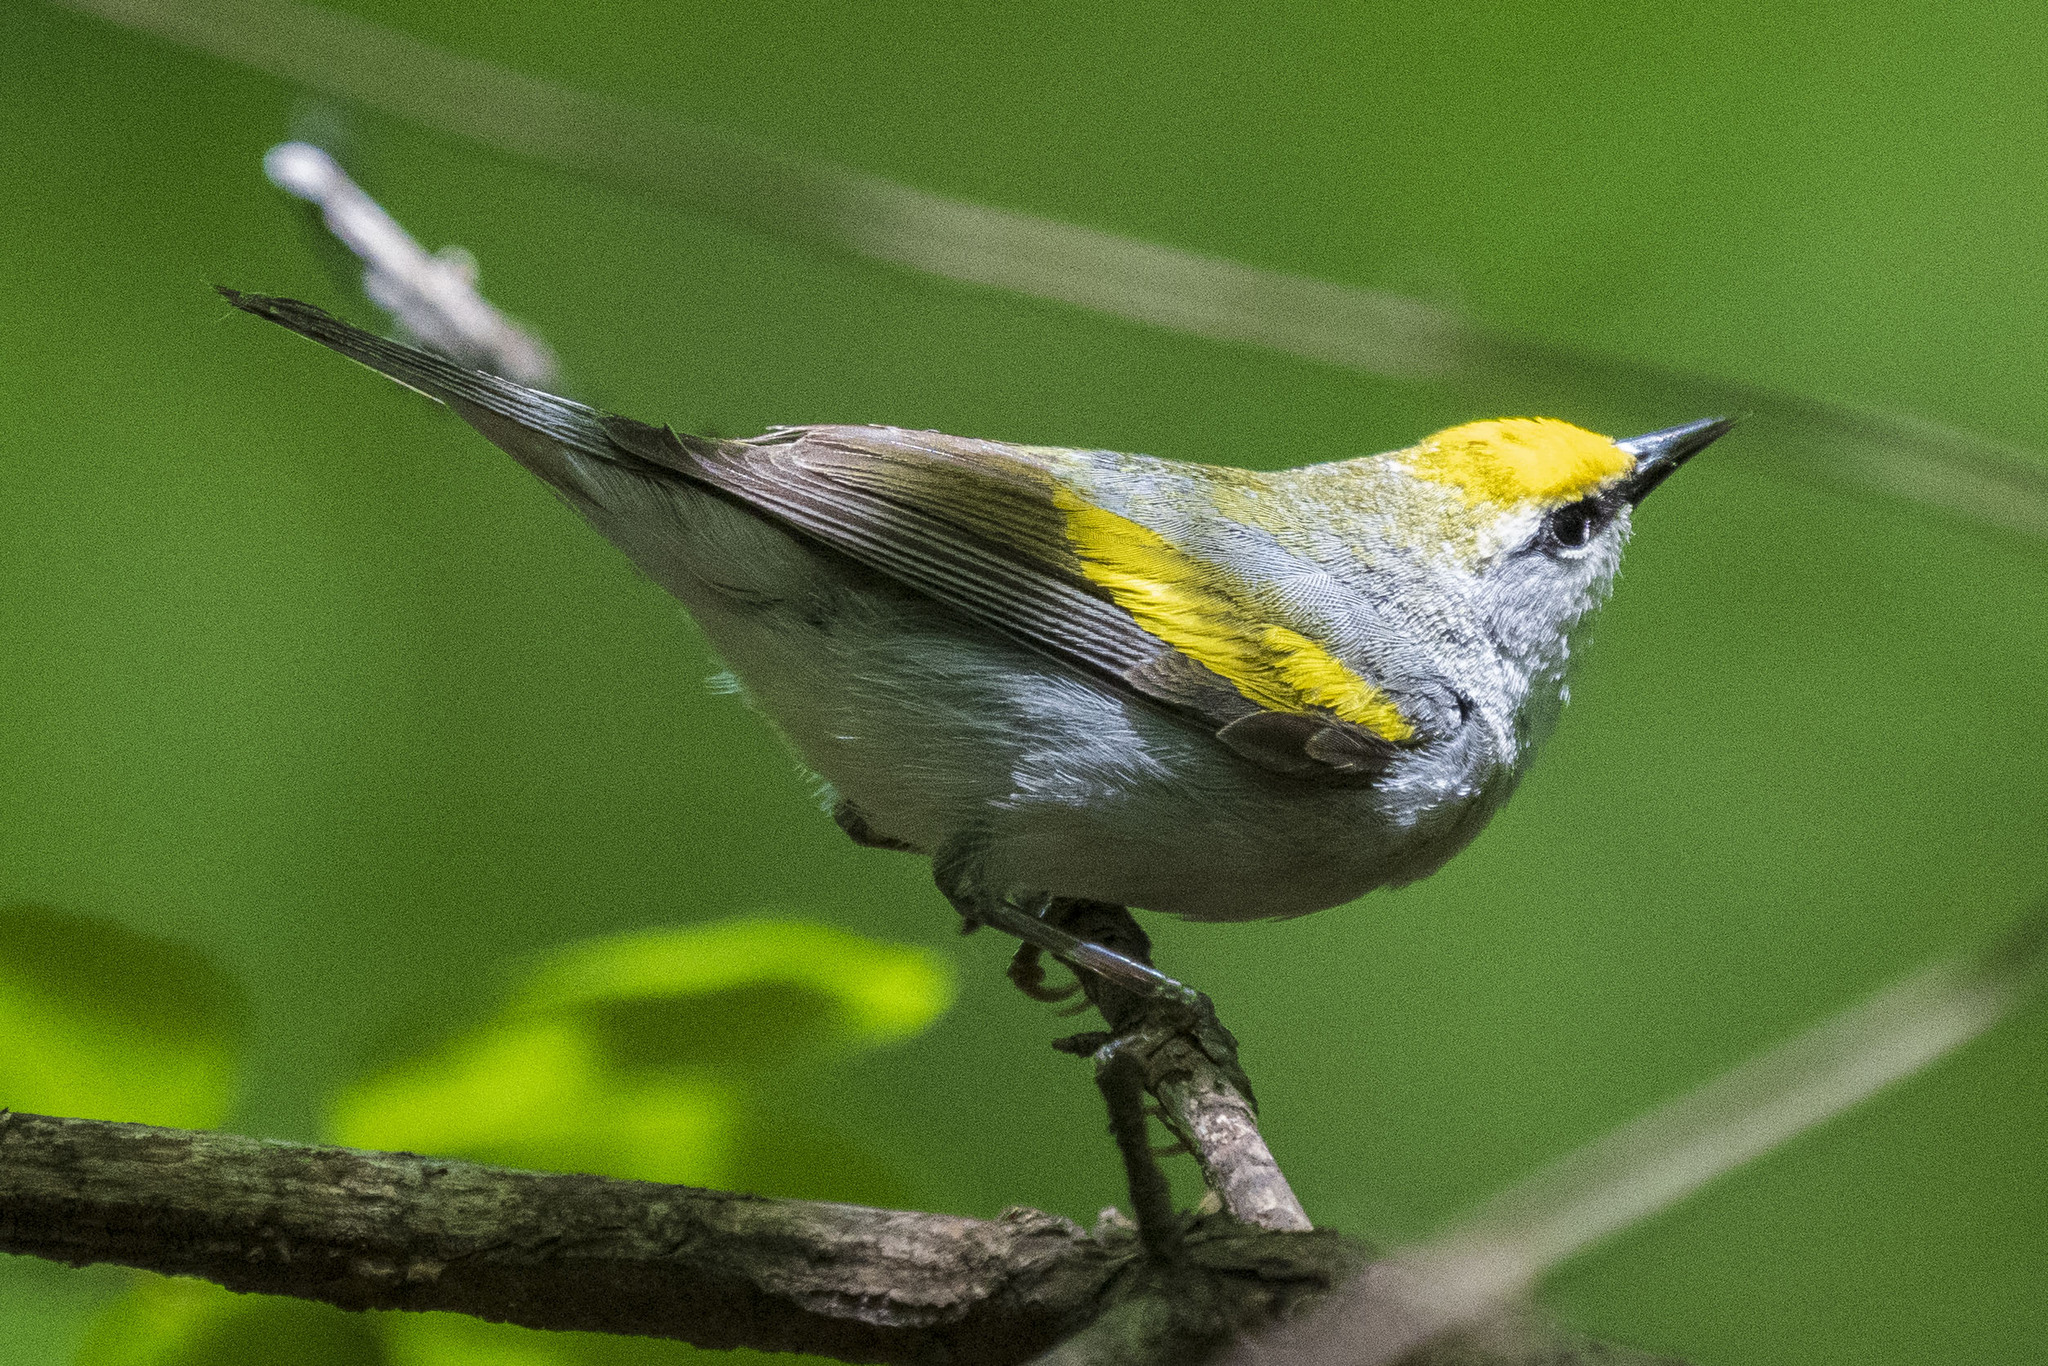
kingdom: Animalia
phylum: Chordata
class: Aves
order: Passeriformes
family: Parulidae
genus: Vermivora
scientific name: Vermivora
